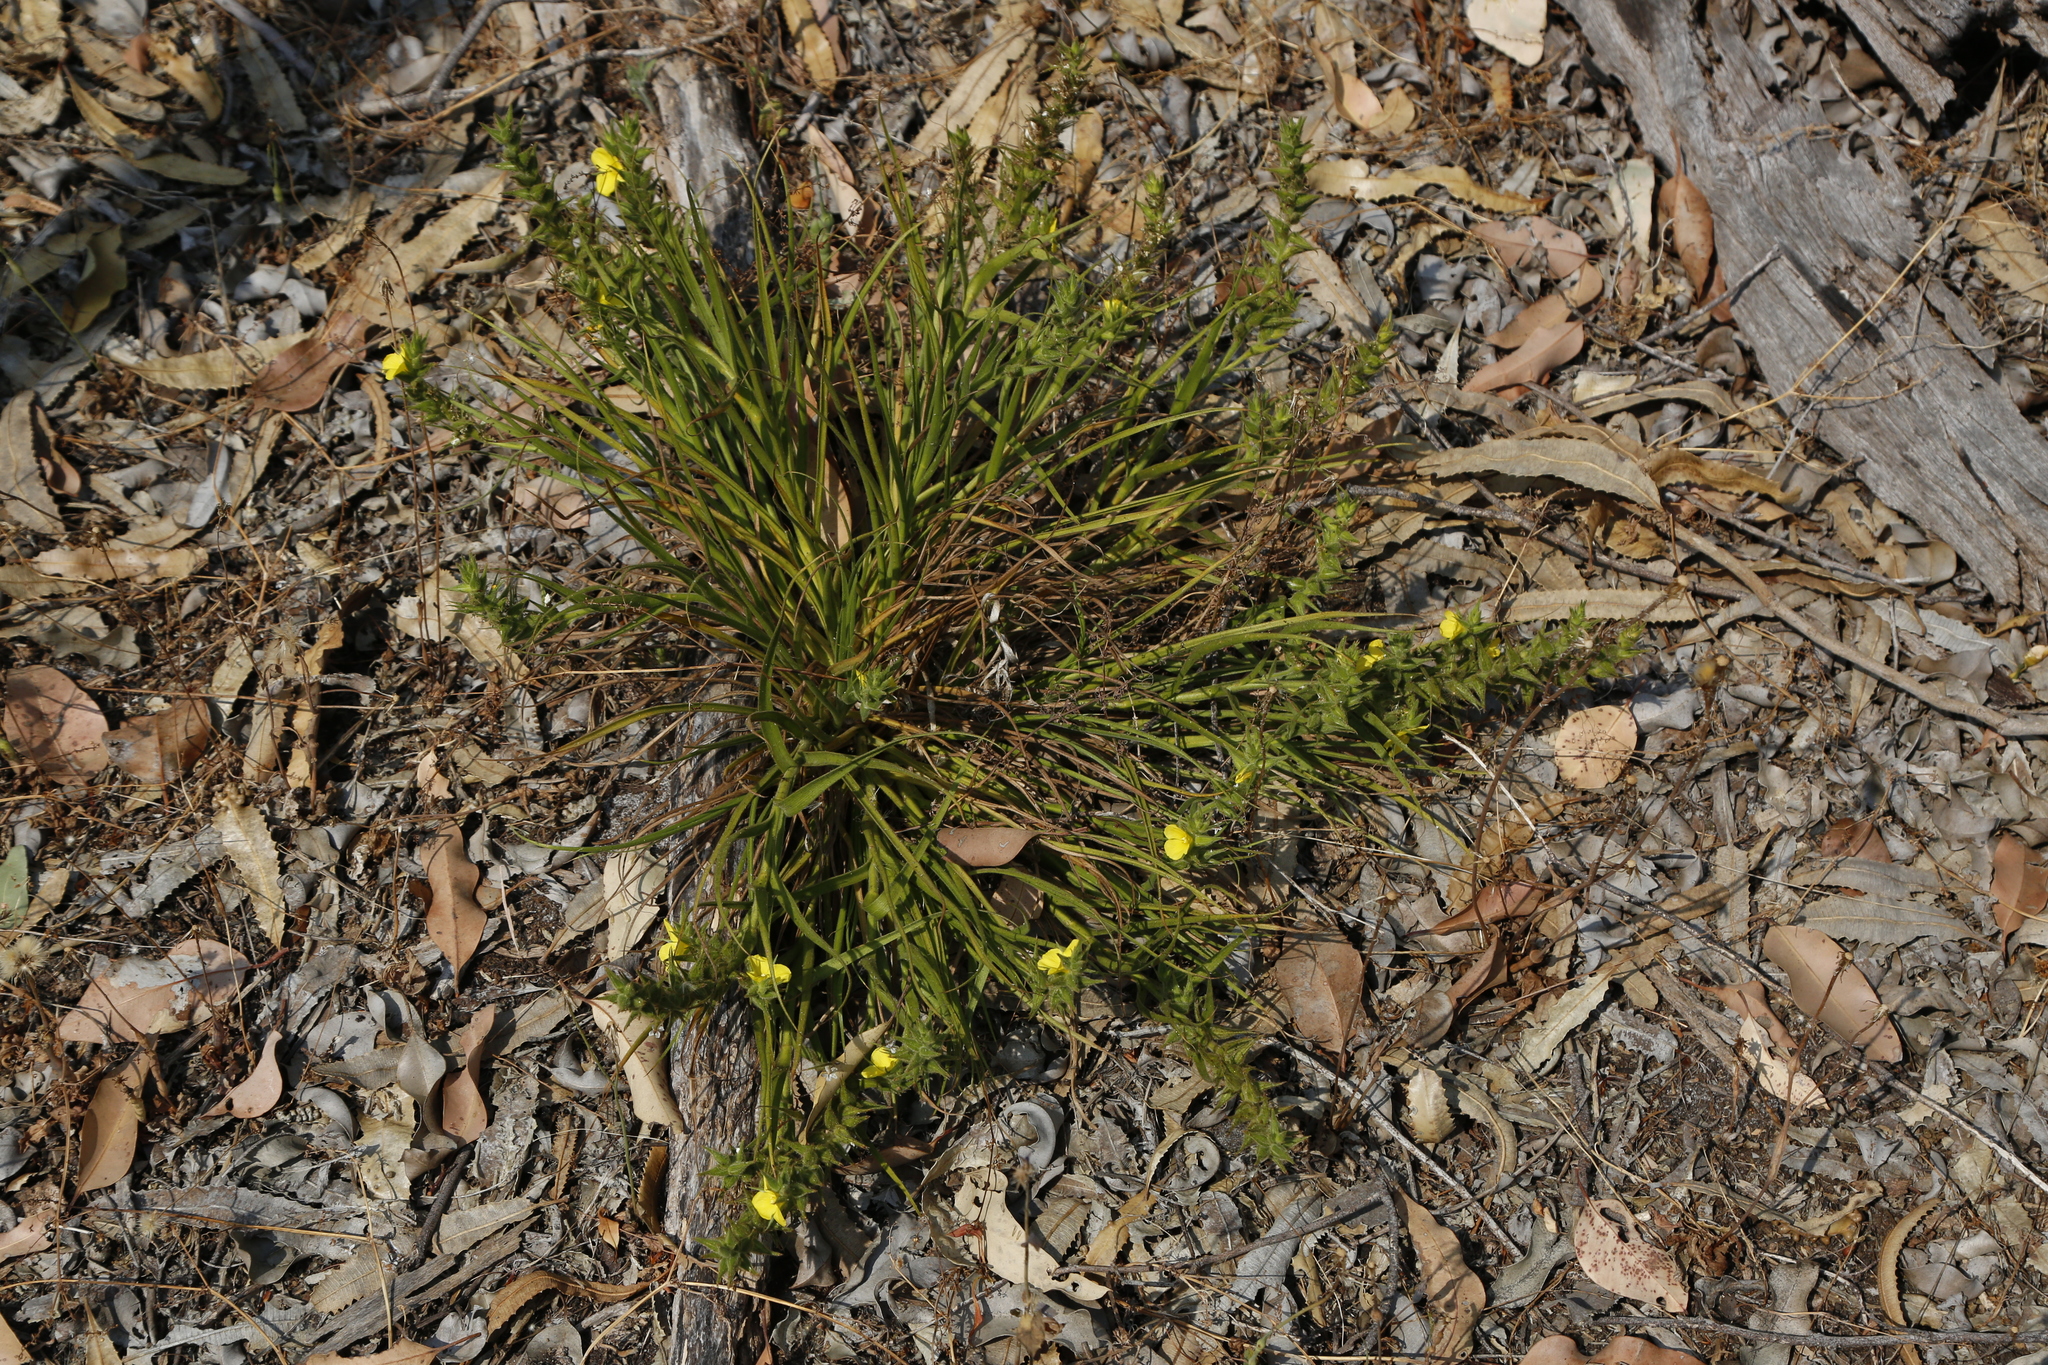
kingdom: Plantae
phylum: Tracheophyta
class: Liliopsida
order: Commelinales
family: Commelinaceae
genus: Cartonema
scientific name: Cartonema philydroides
